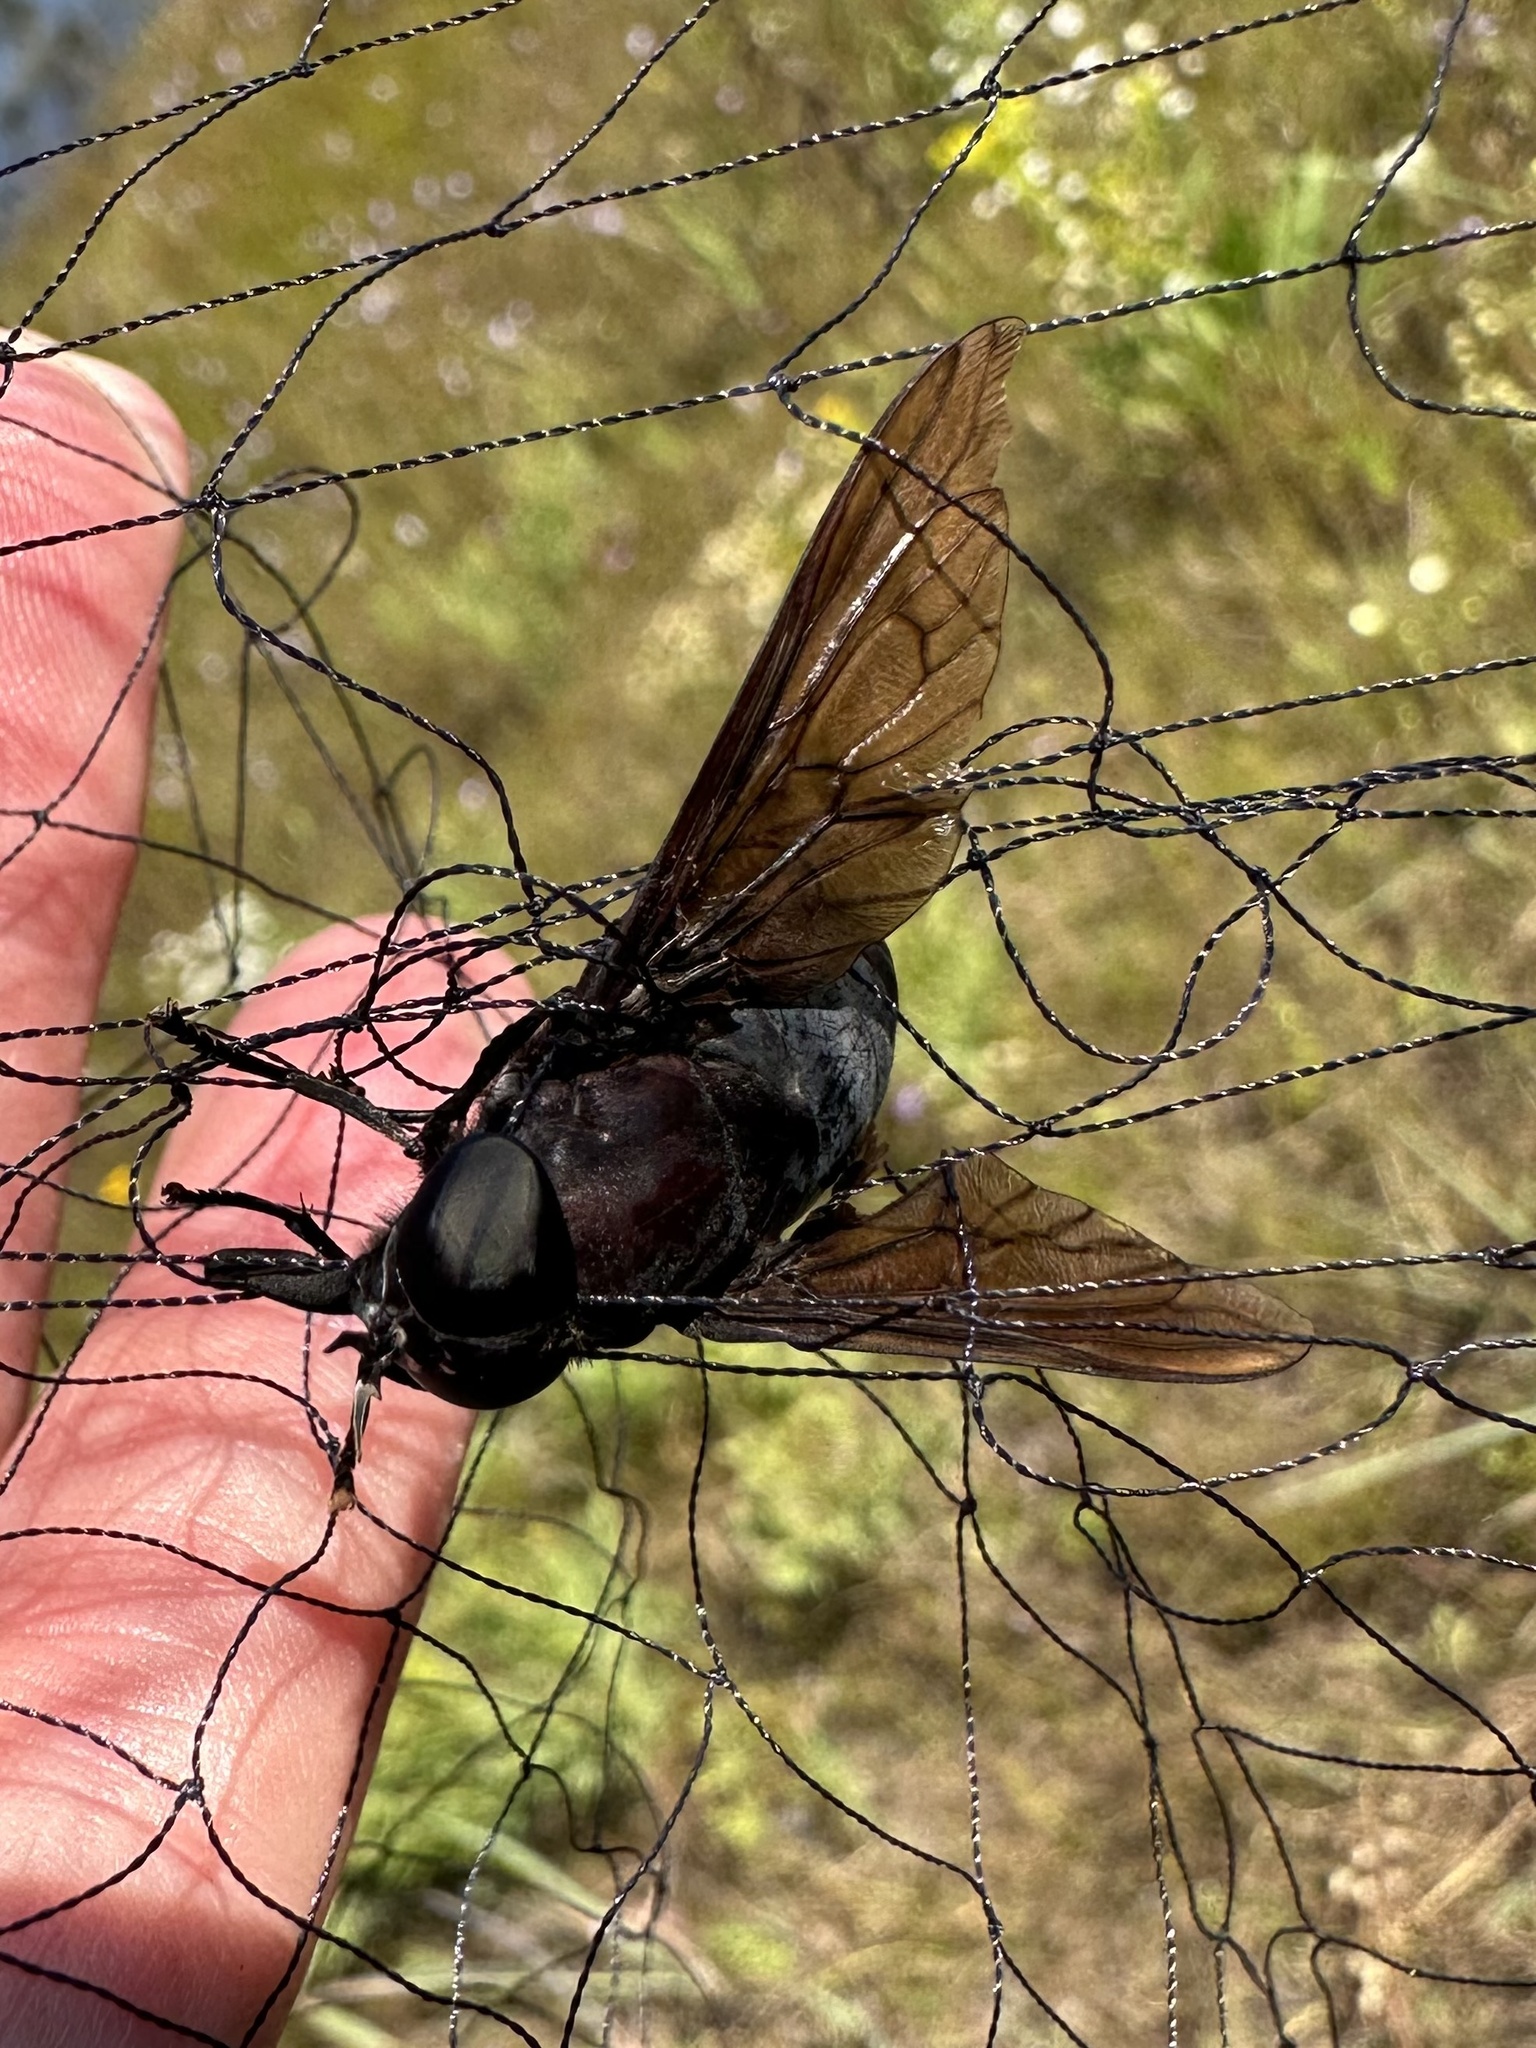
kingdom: Animalia
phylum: Arthropoda
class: Insecta
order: Diptera
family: Tabanidae
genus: Tabanus
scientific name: Tabanus atratus
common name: Black horse fly
